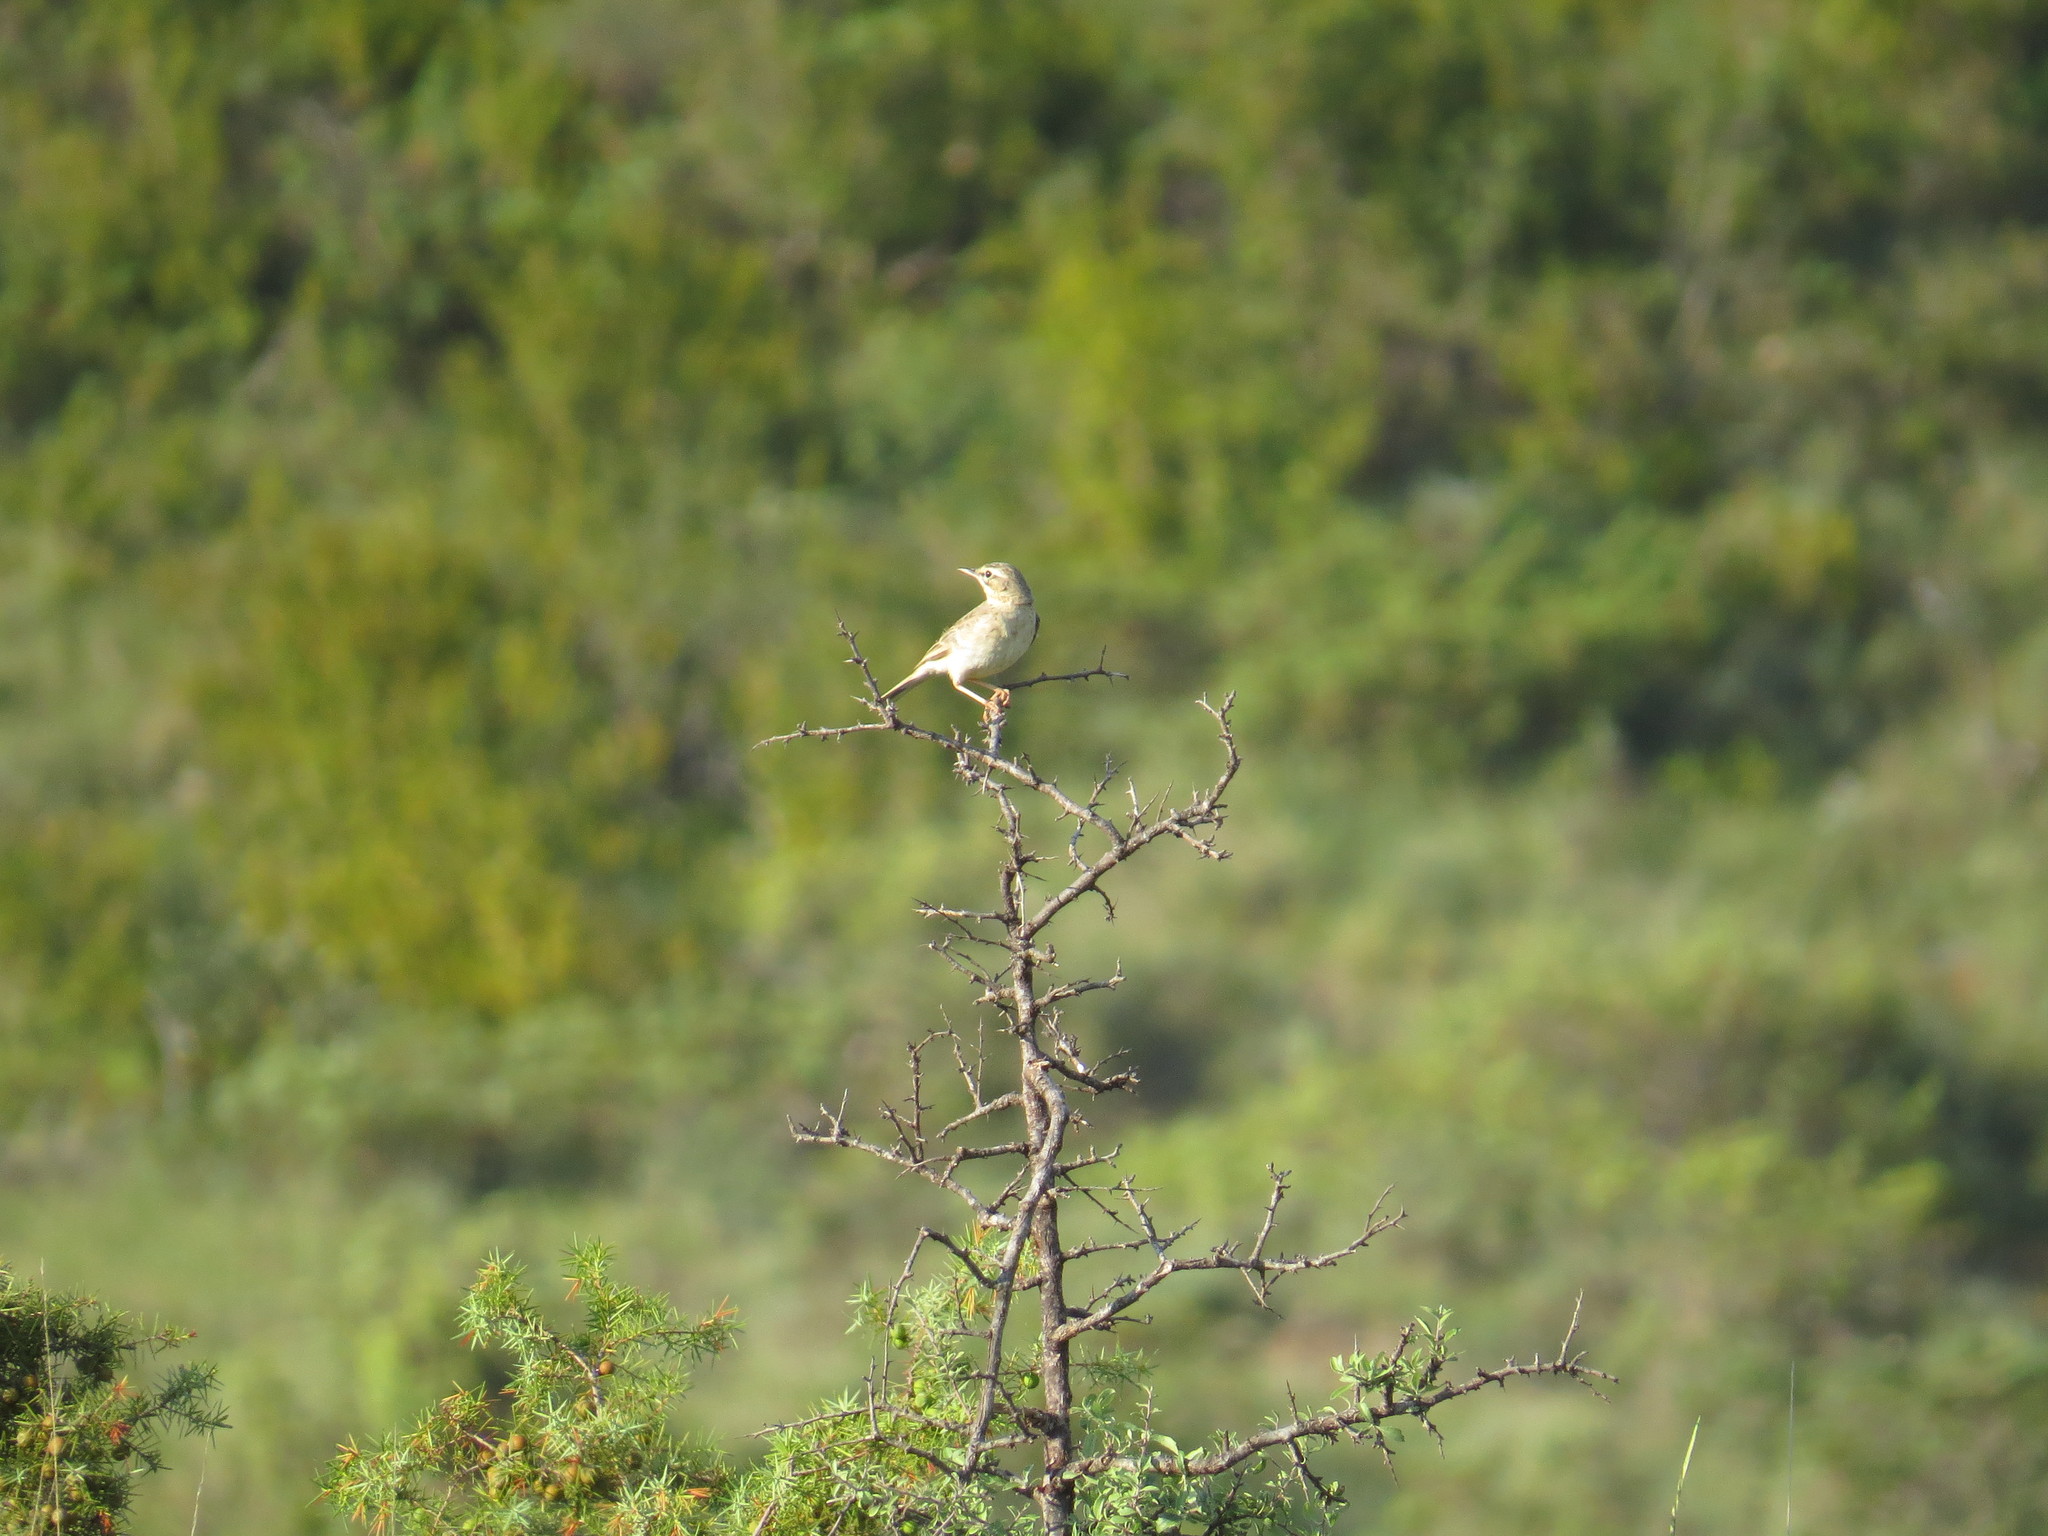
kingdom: Animalia
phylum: Chordata
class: Aves
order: Passeriformes
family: Motacillidae
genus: Anthus
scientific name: Anthus campestris
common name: Tawny pipit
